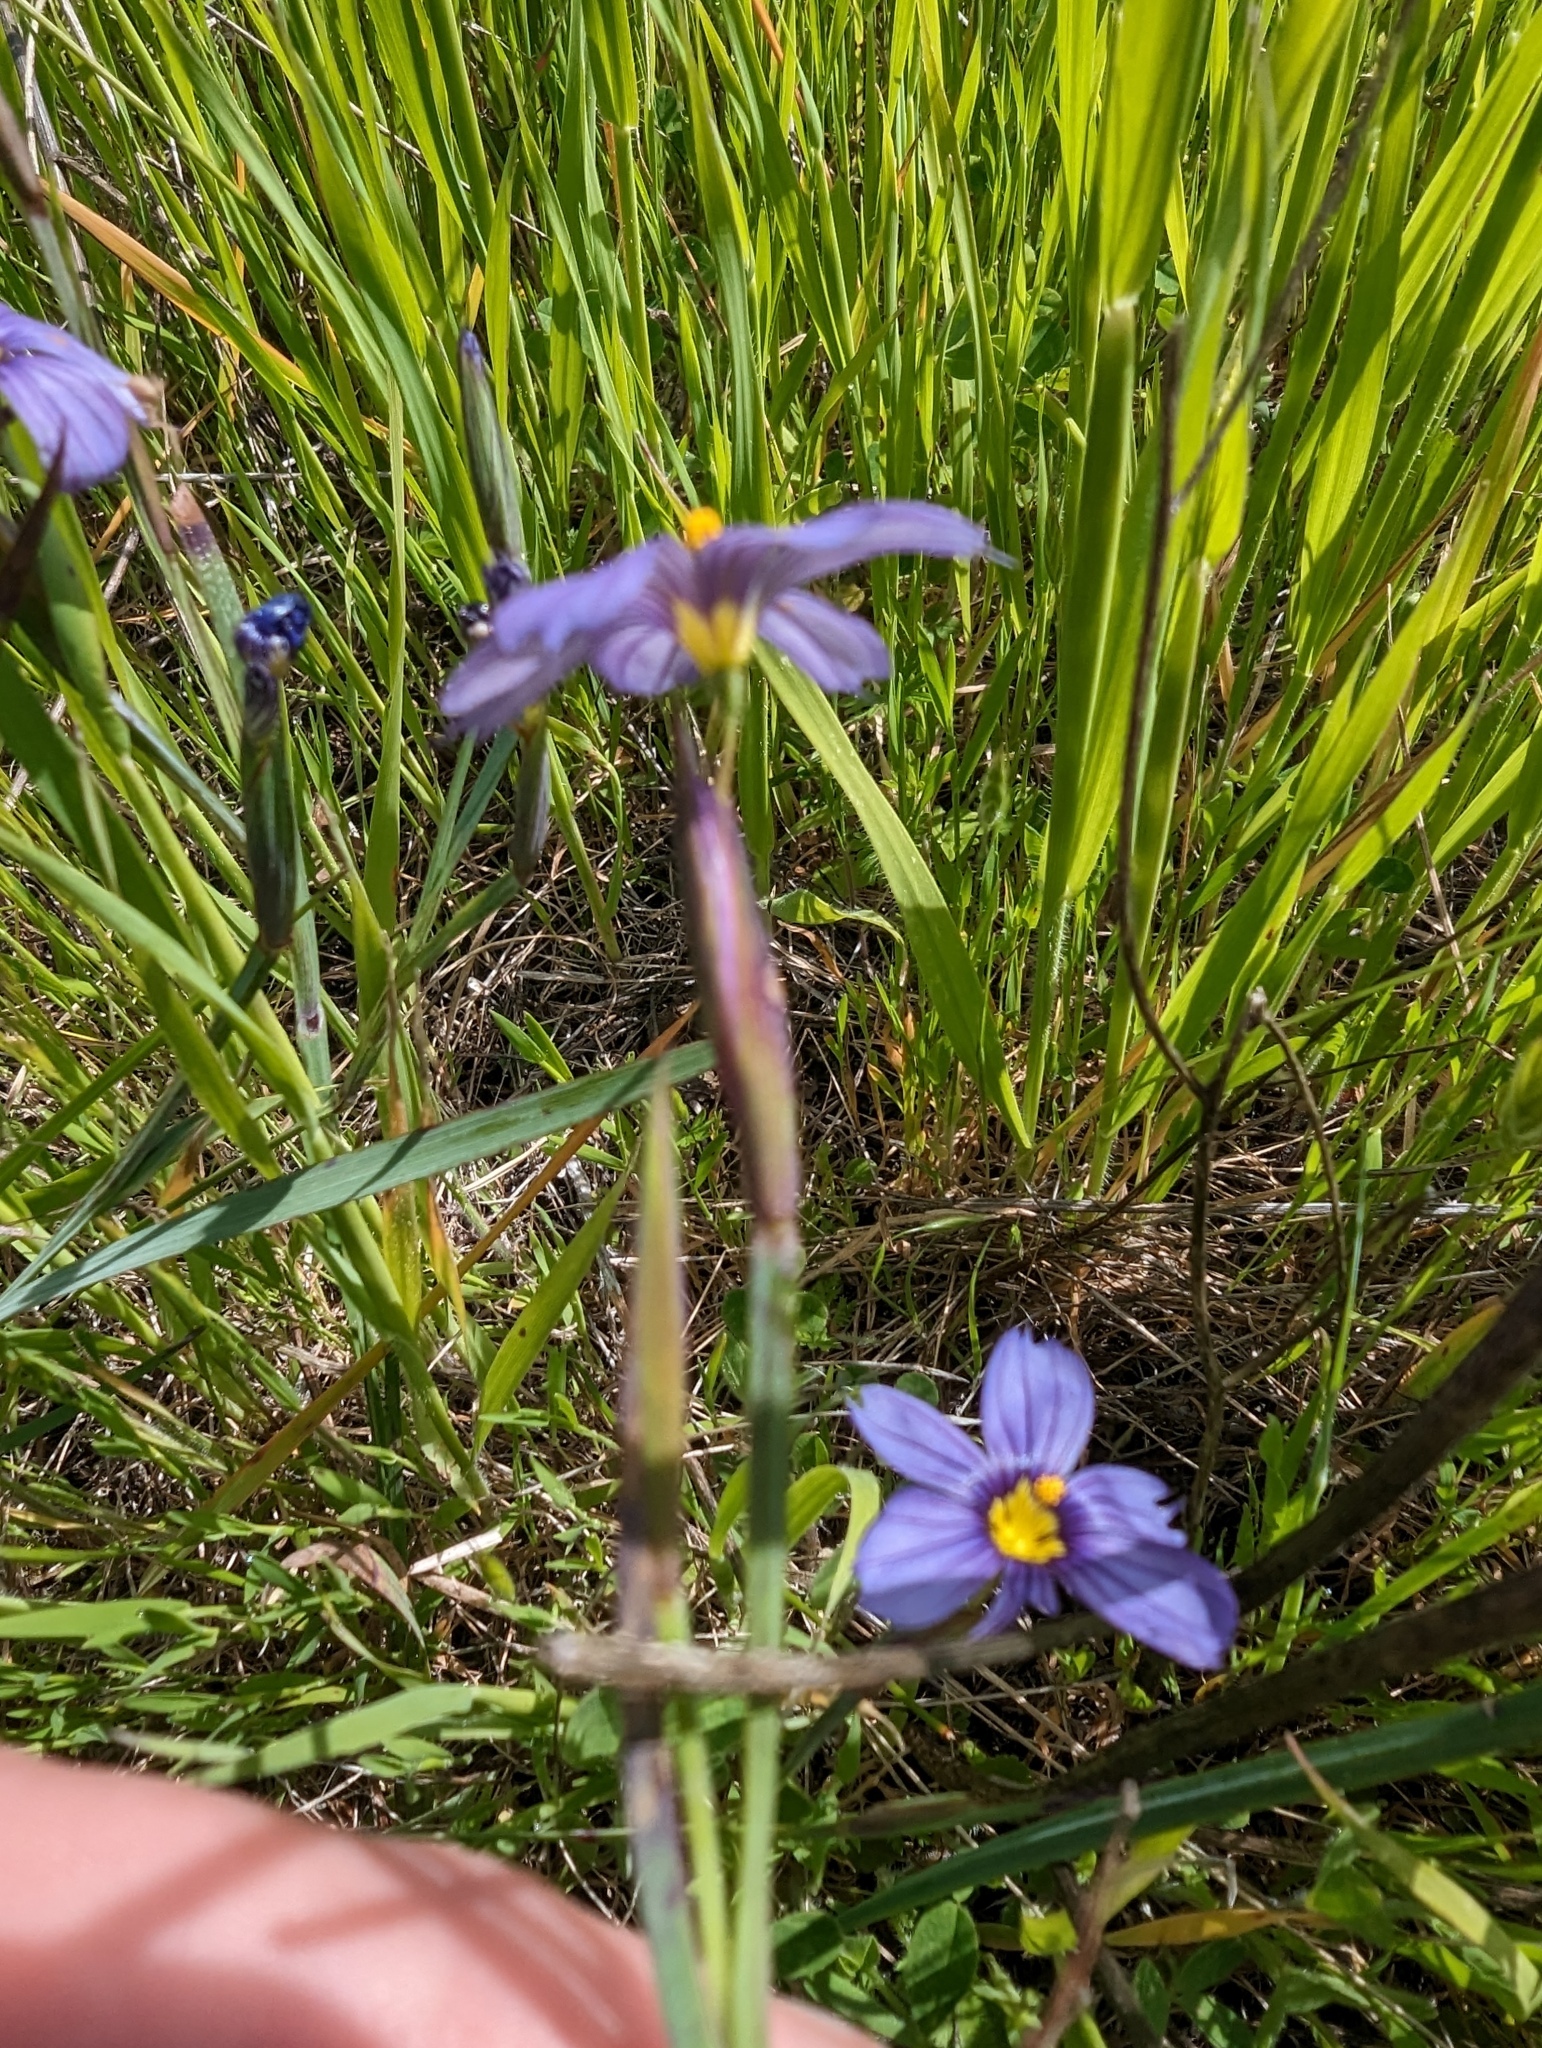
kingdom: Plantae
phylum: Tracheophyta
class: Liliopsida
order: Asparagales
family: Iridaceae
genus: Sisyrinchium
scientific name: Sisyrinchium bellum
